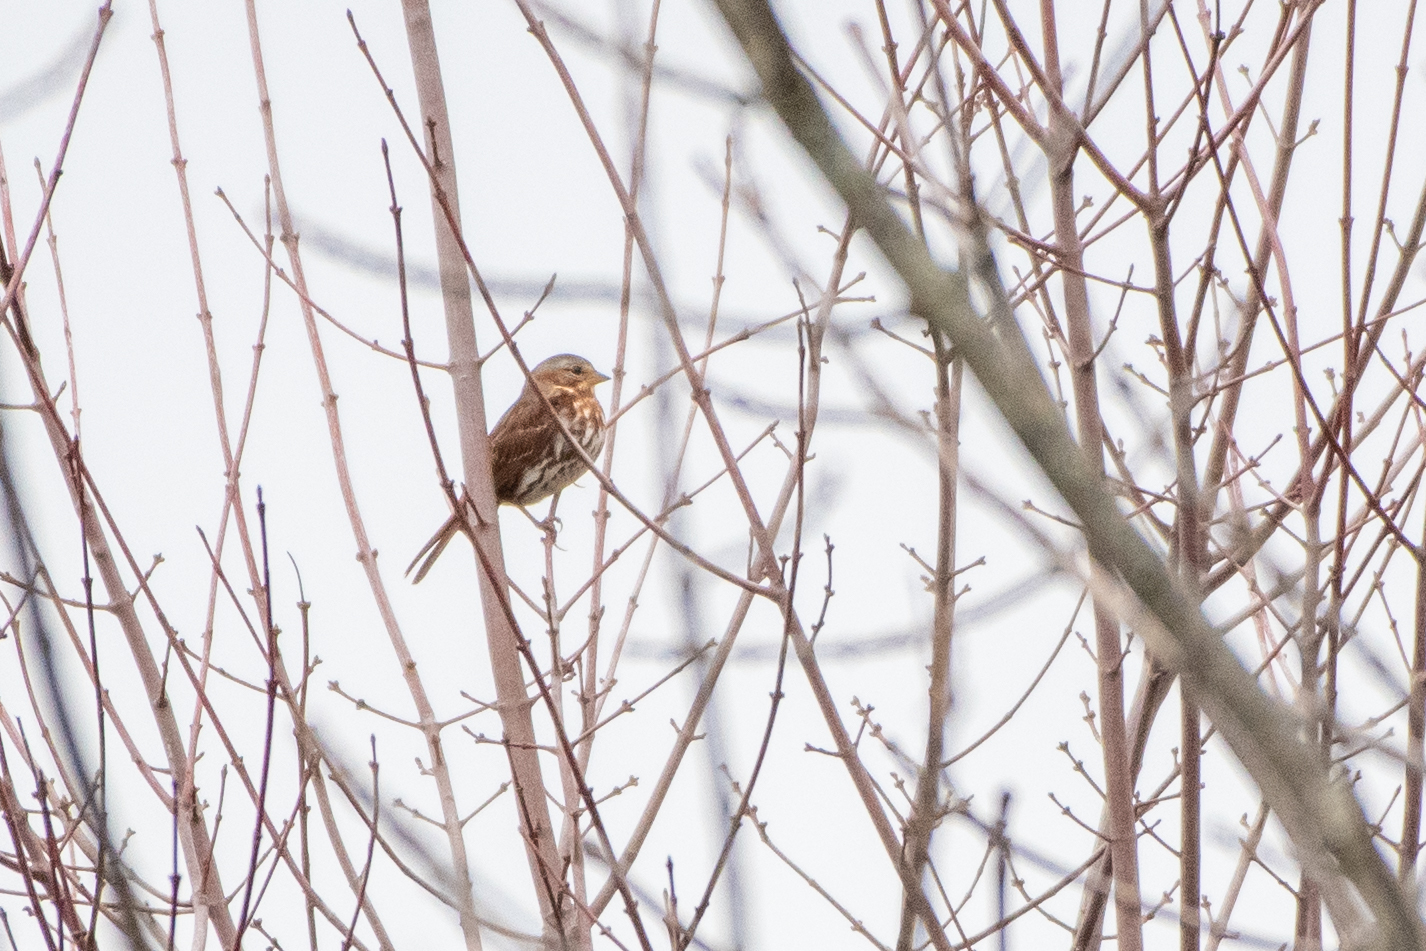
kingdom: Animalia
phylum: Chordata
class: Aves
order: Passeriformes
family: Passerellidae
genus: Passerella
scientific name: Passerella iliaca
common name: Fox sparrow
